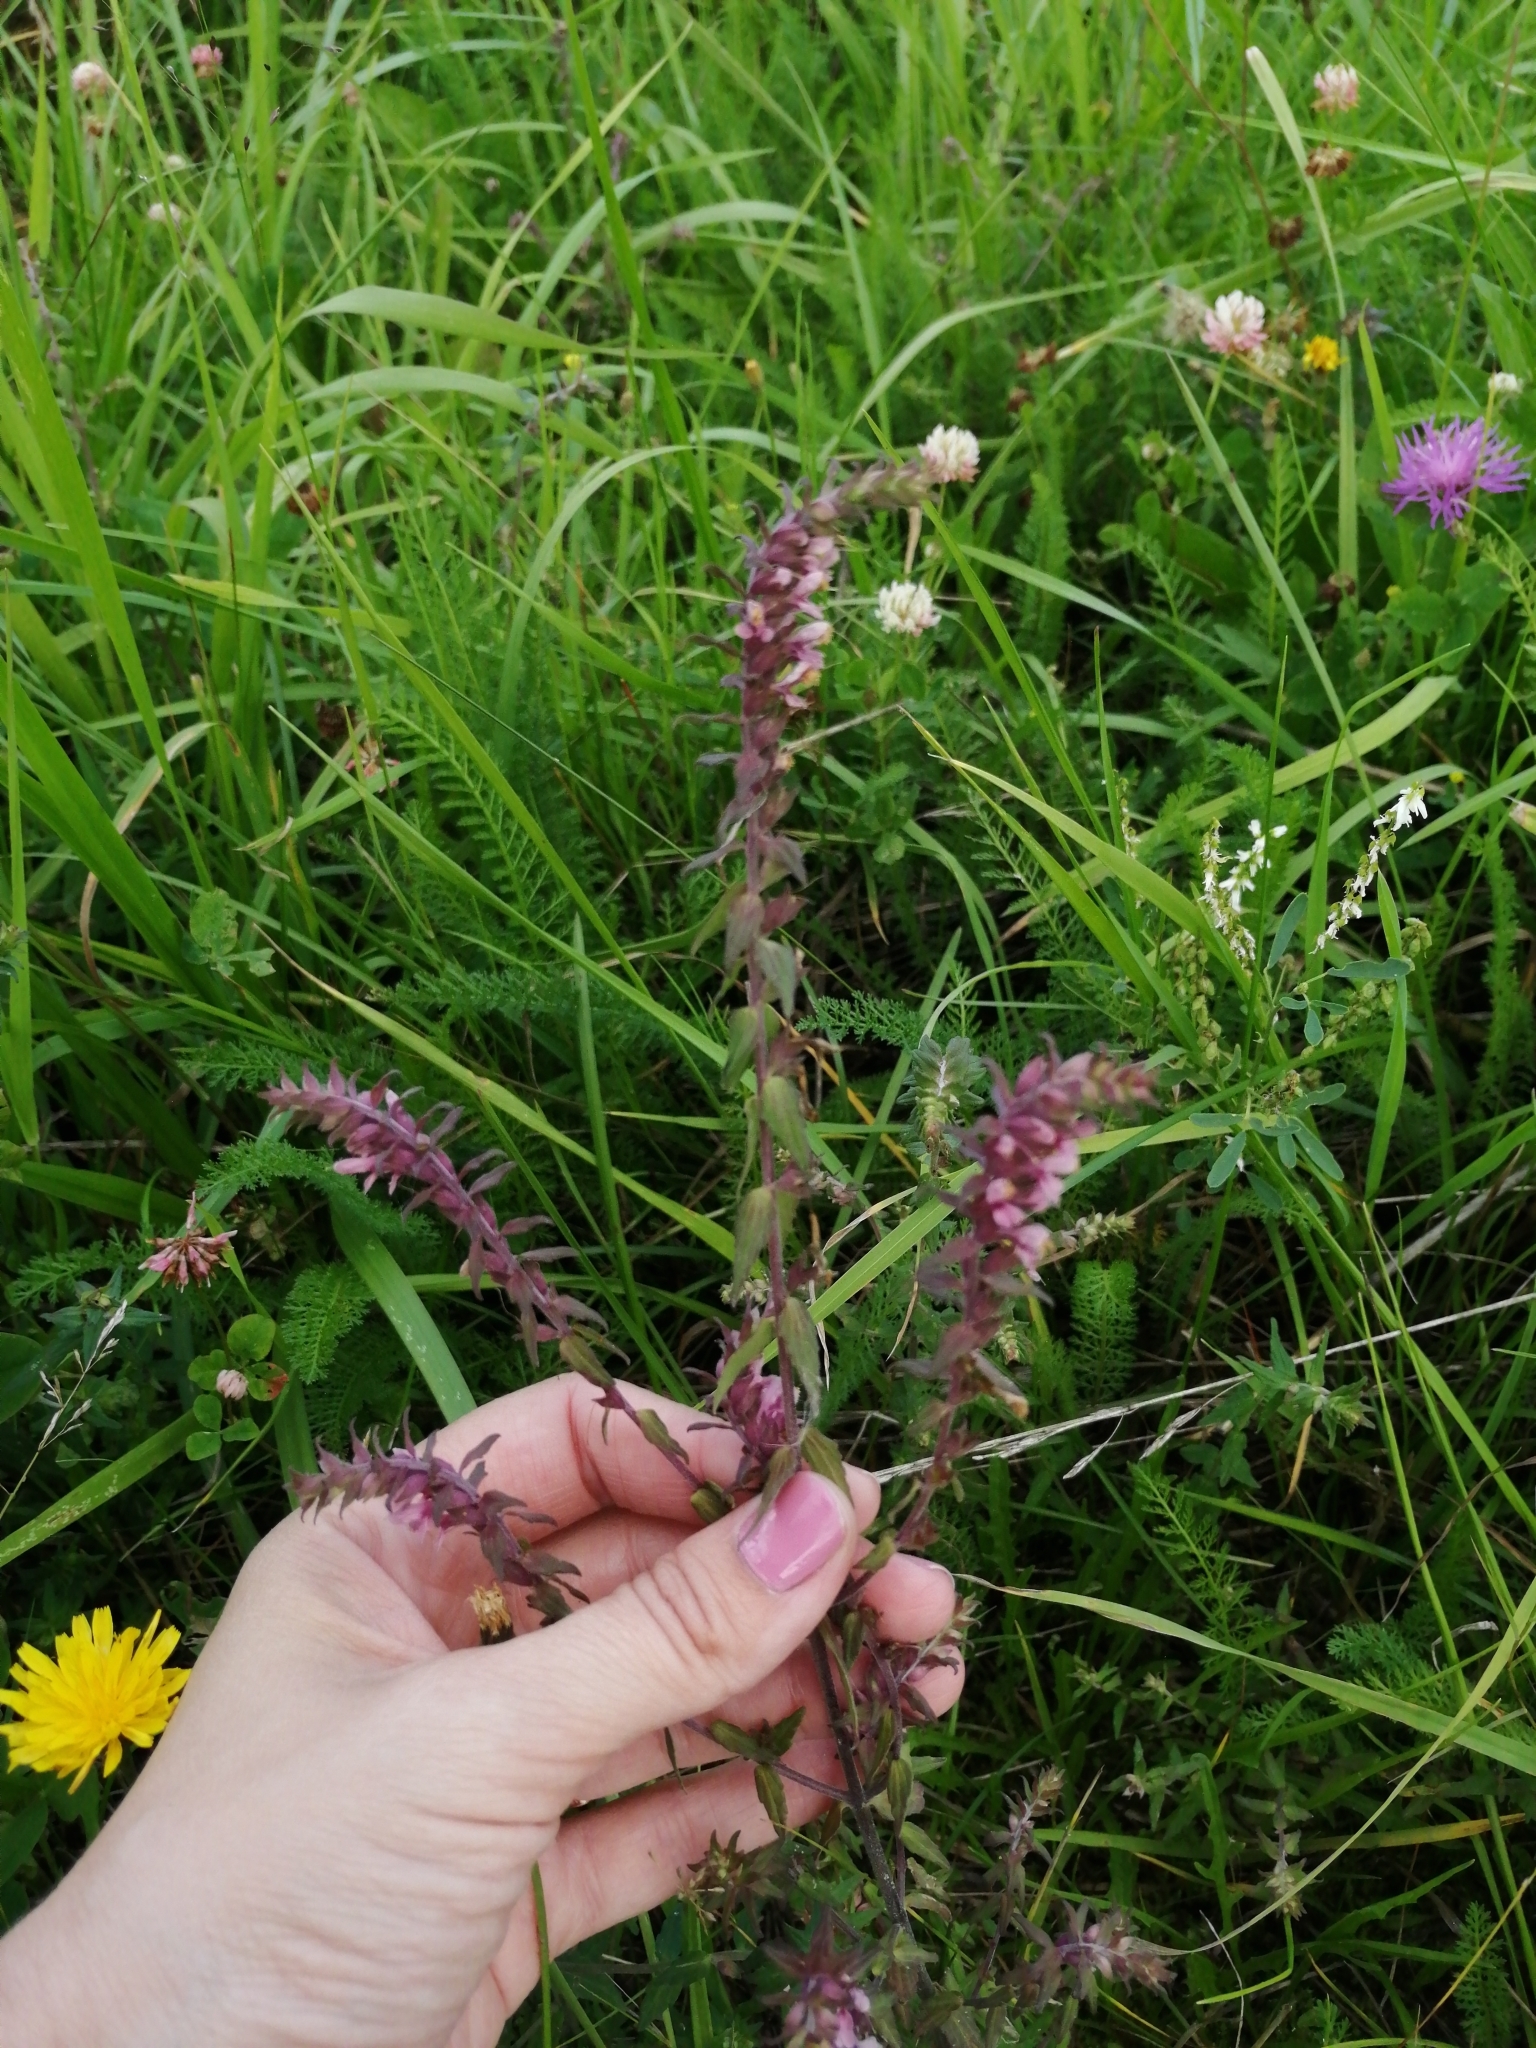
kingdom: Plantae
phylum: Tracheophyta
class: Magnoliopsida
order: Lamiales
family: Orobanchaceae
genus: Odontites
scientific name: Odontites vulgaris
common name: Broomrape
